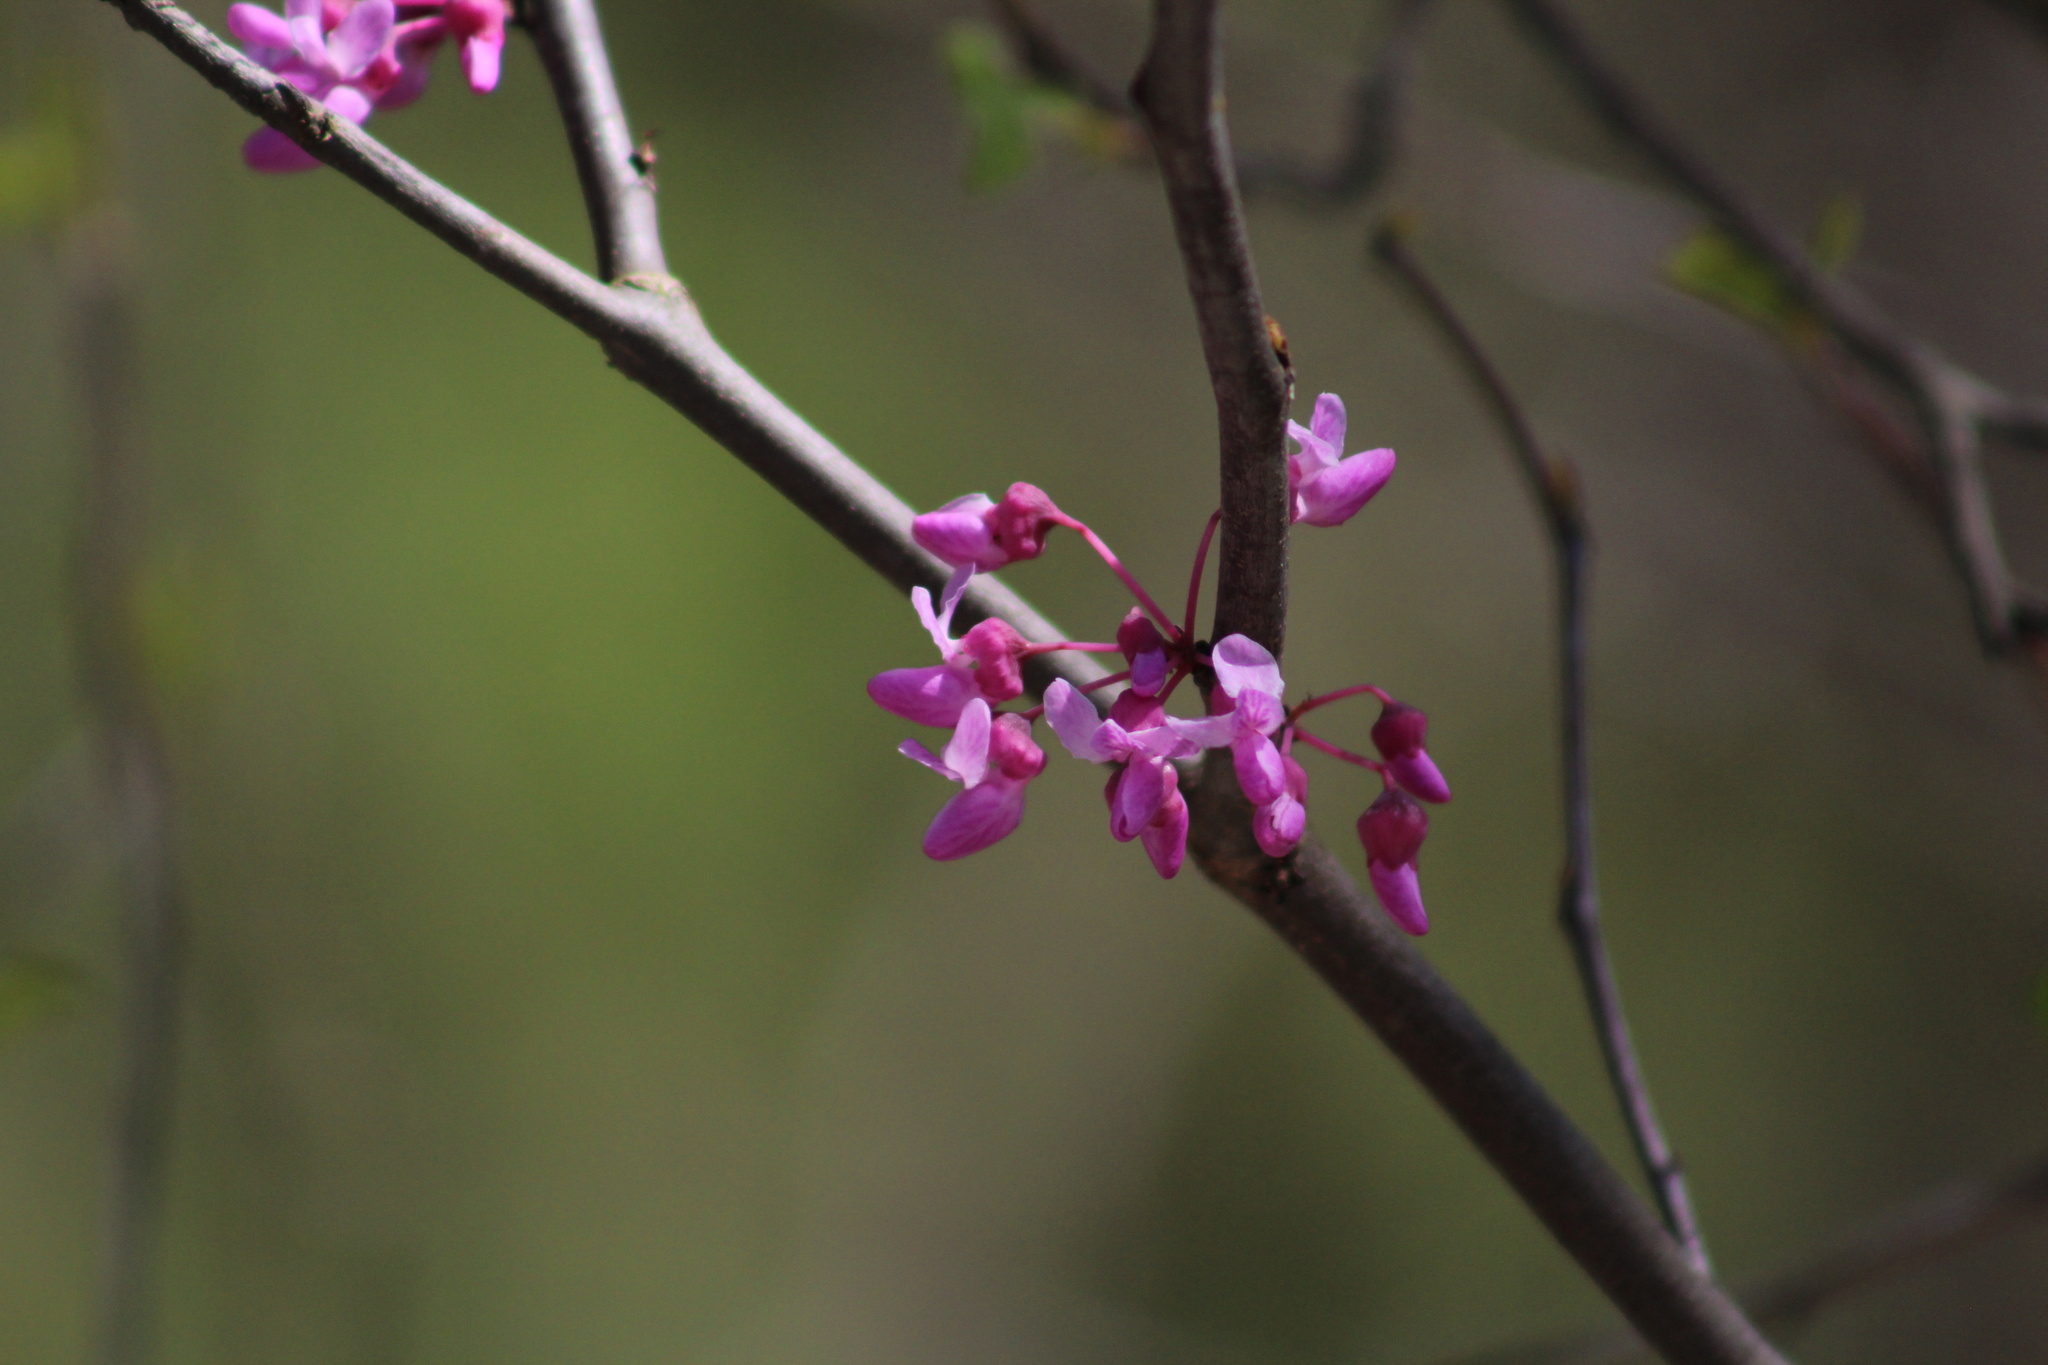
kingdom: Plantae
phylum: Tracheophyta
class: Magnoliopsida
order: Fabales
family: Fabaceae
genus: Cercis
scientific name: Cercis canadensis
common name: Eastern redbud
